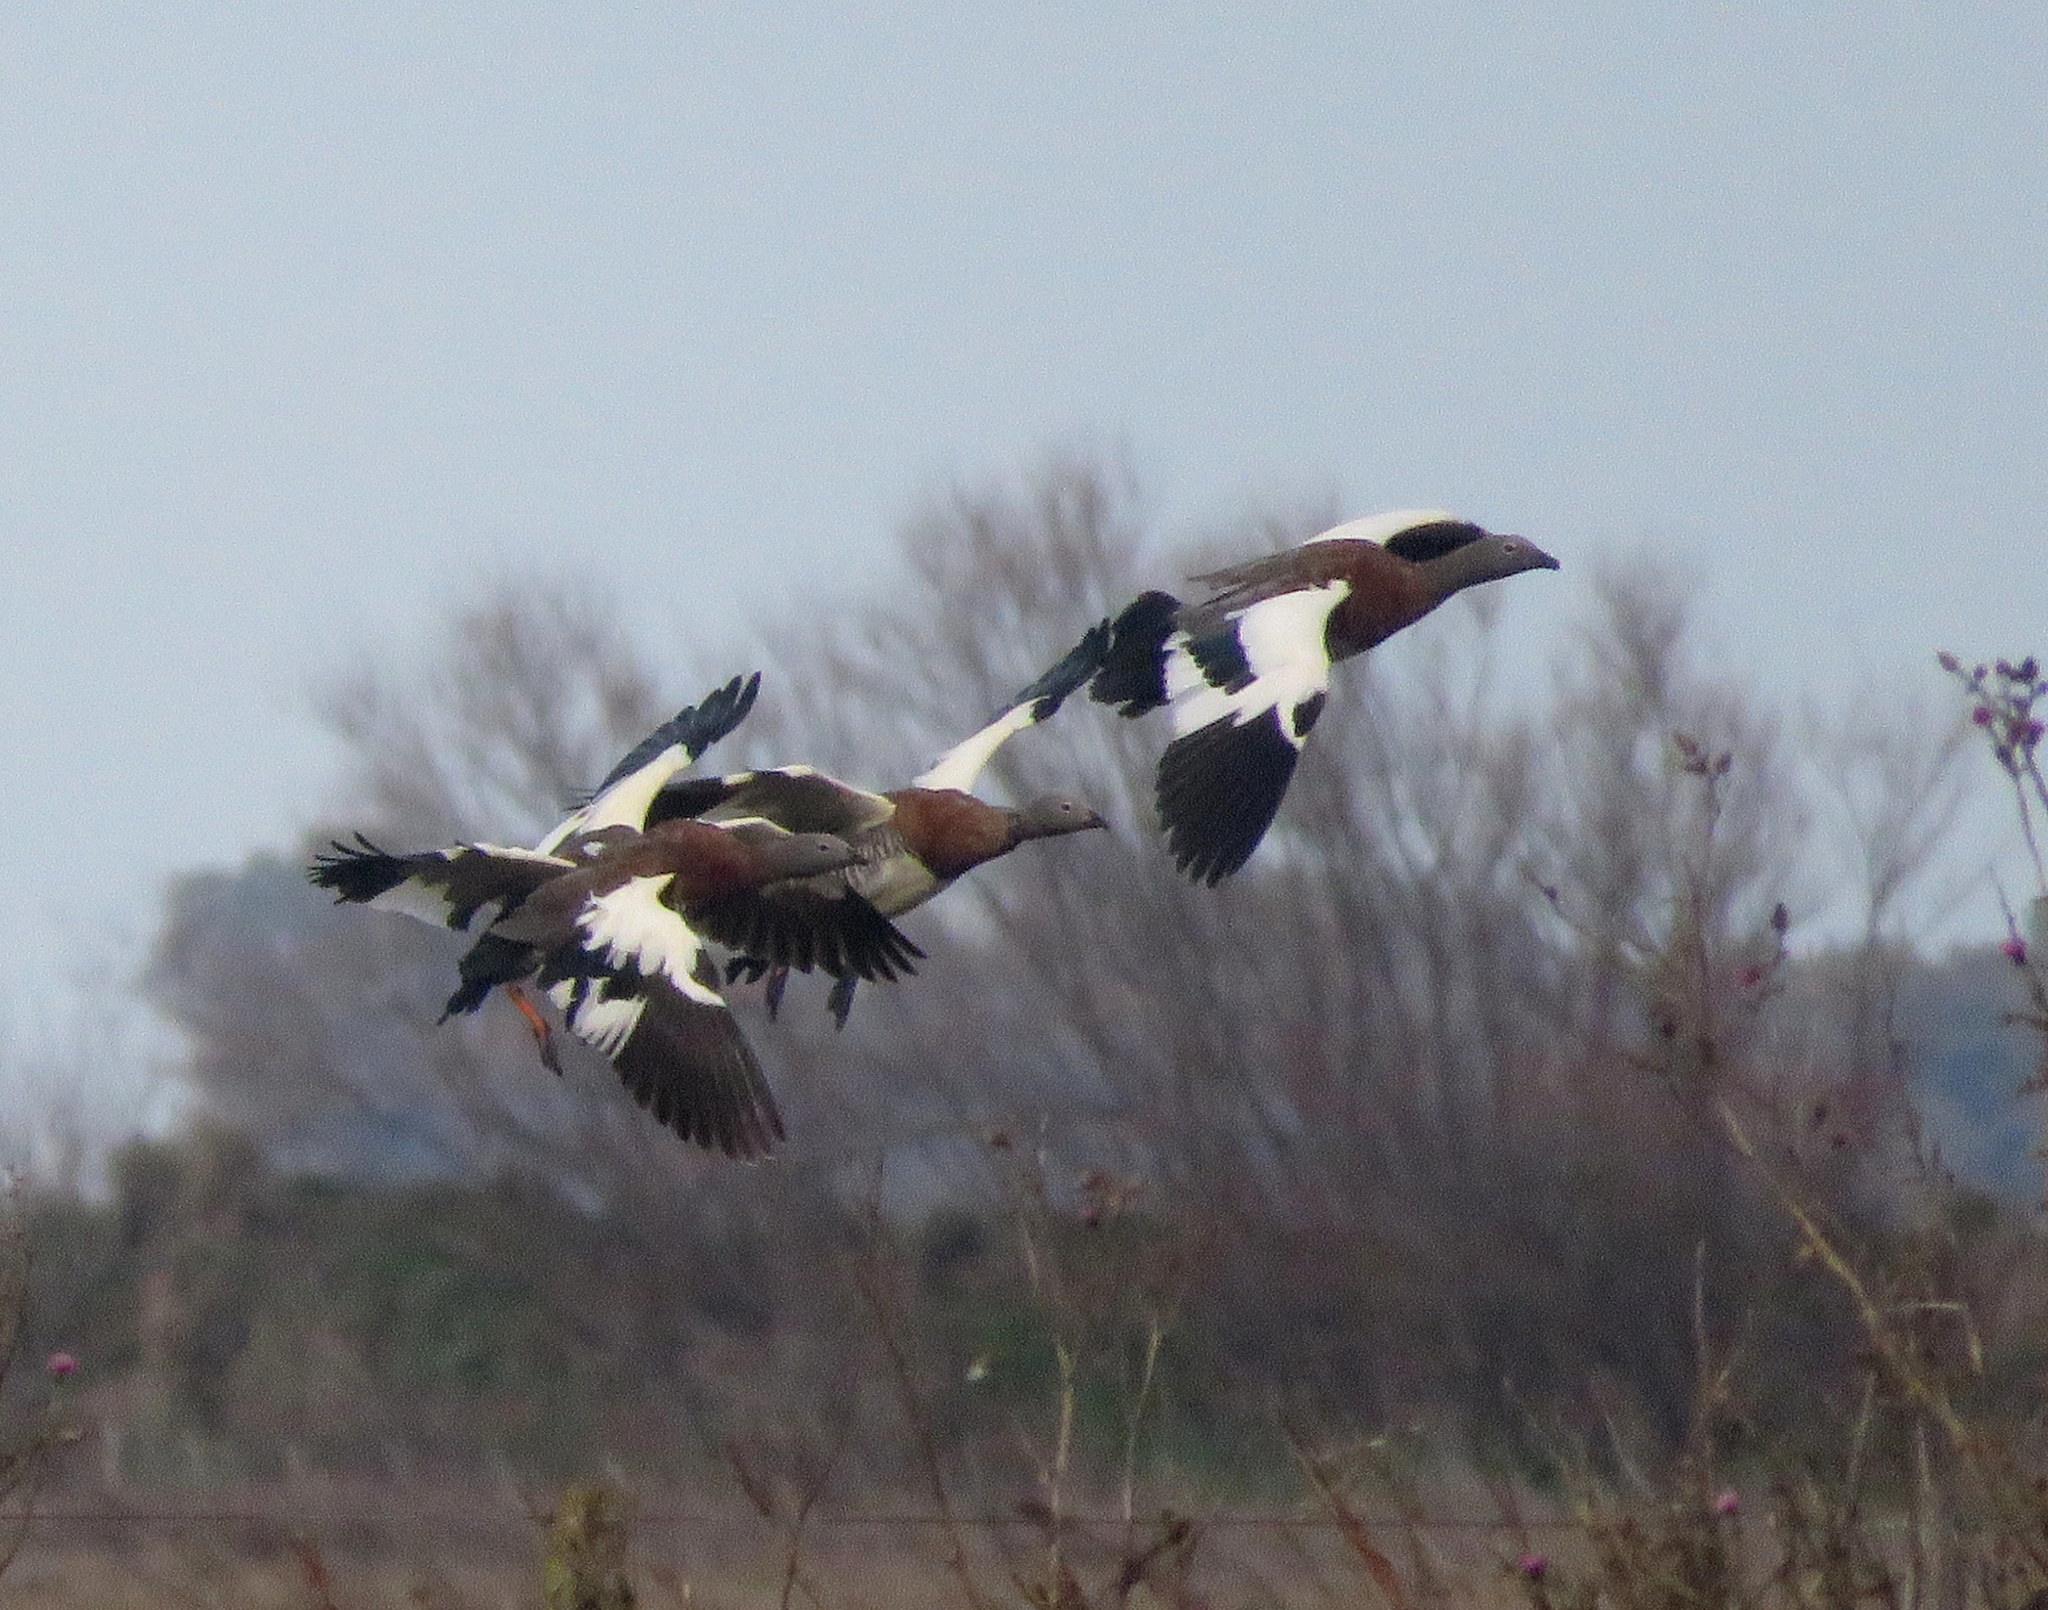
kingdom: Animalia
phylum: Chordata
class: Aves
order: Anseriformes
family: Anatidae
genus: Chloephaga
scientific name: Chloephaga poliocephala
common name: Ashy-headed goose
